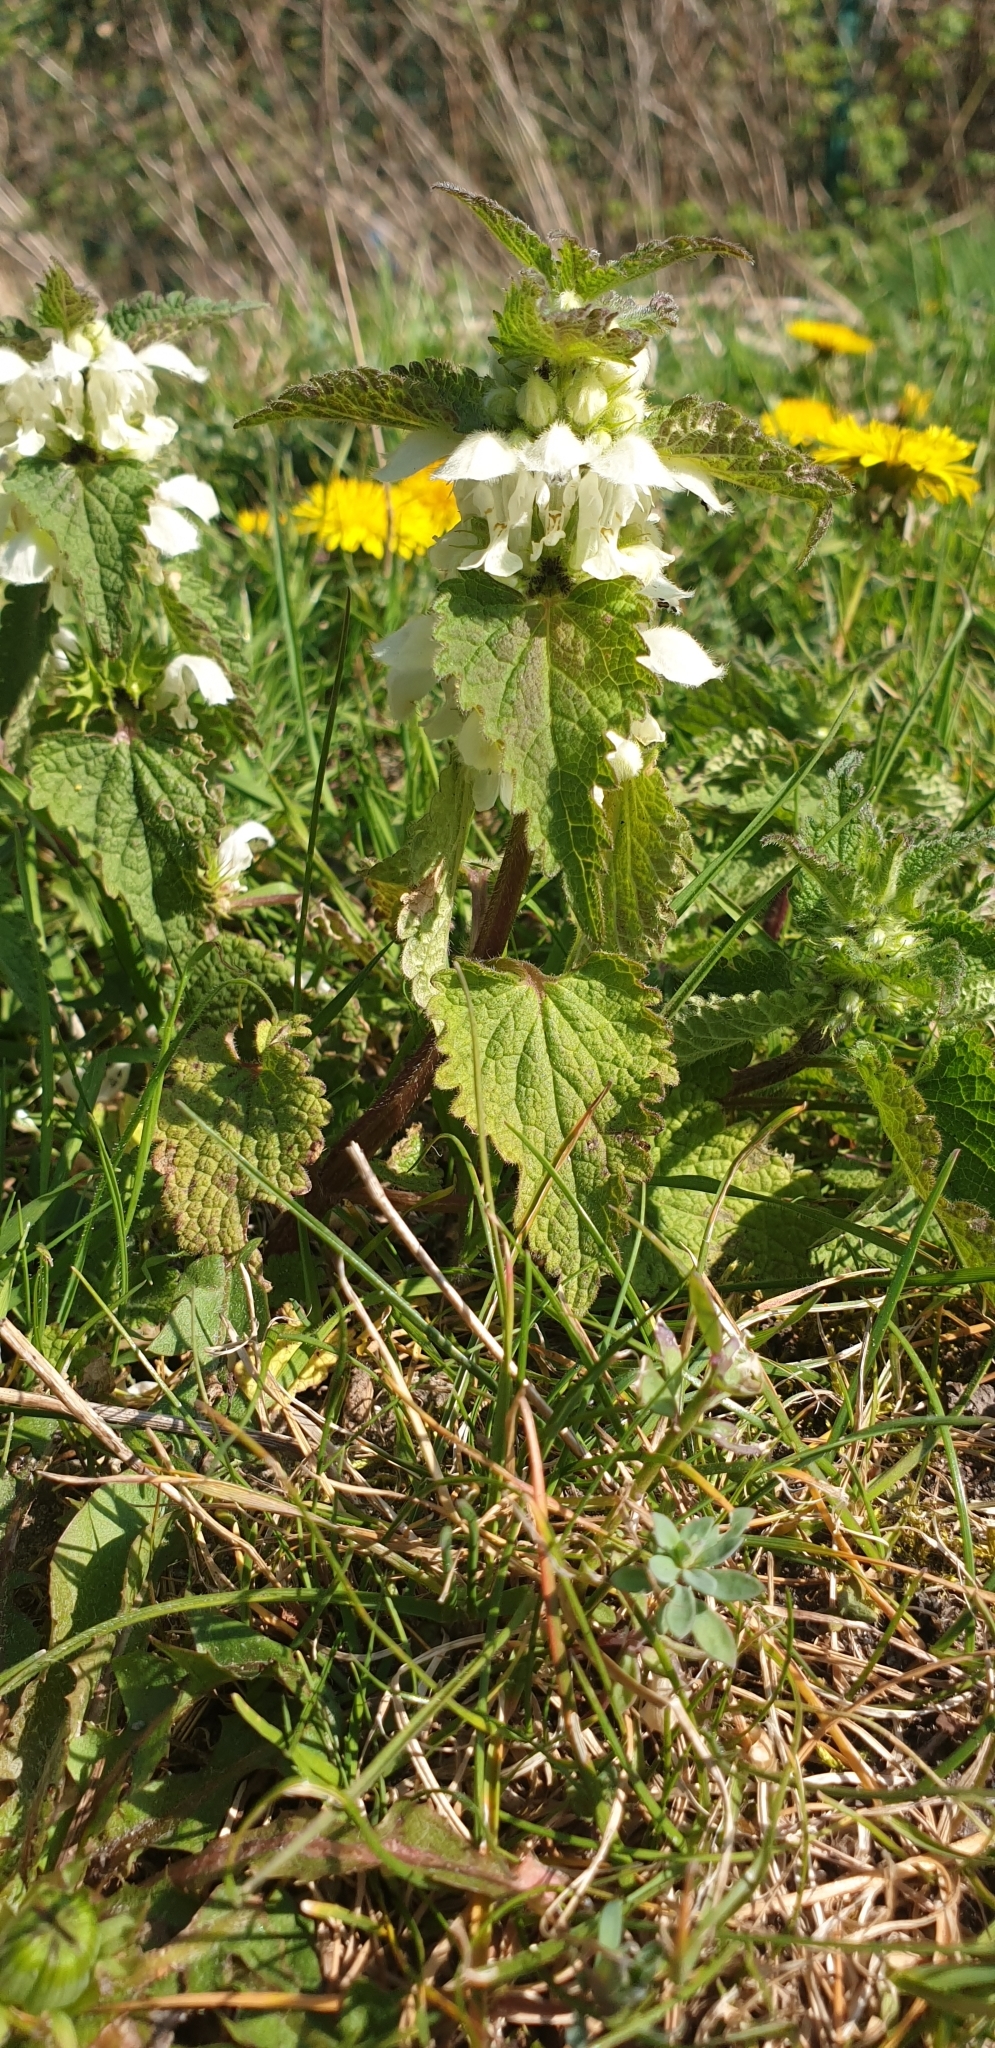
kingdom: Plantae
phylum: Tracheophyta
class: Magnoliopsida
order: Lamiales
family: Lamiaceae
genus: Lamium
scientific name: Lamium album
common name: White dead-nettle
